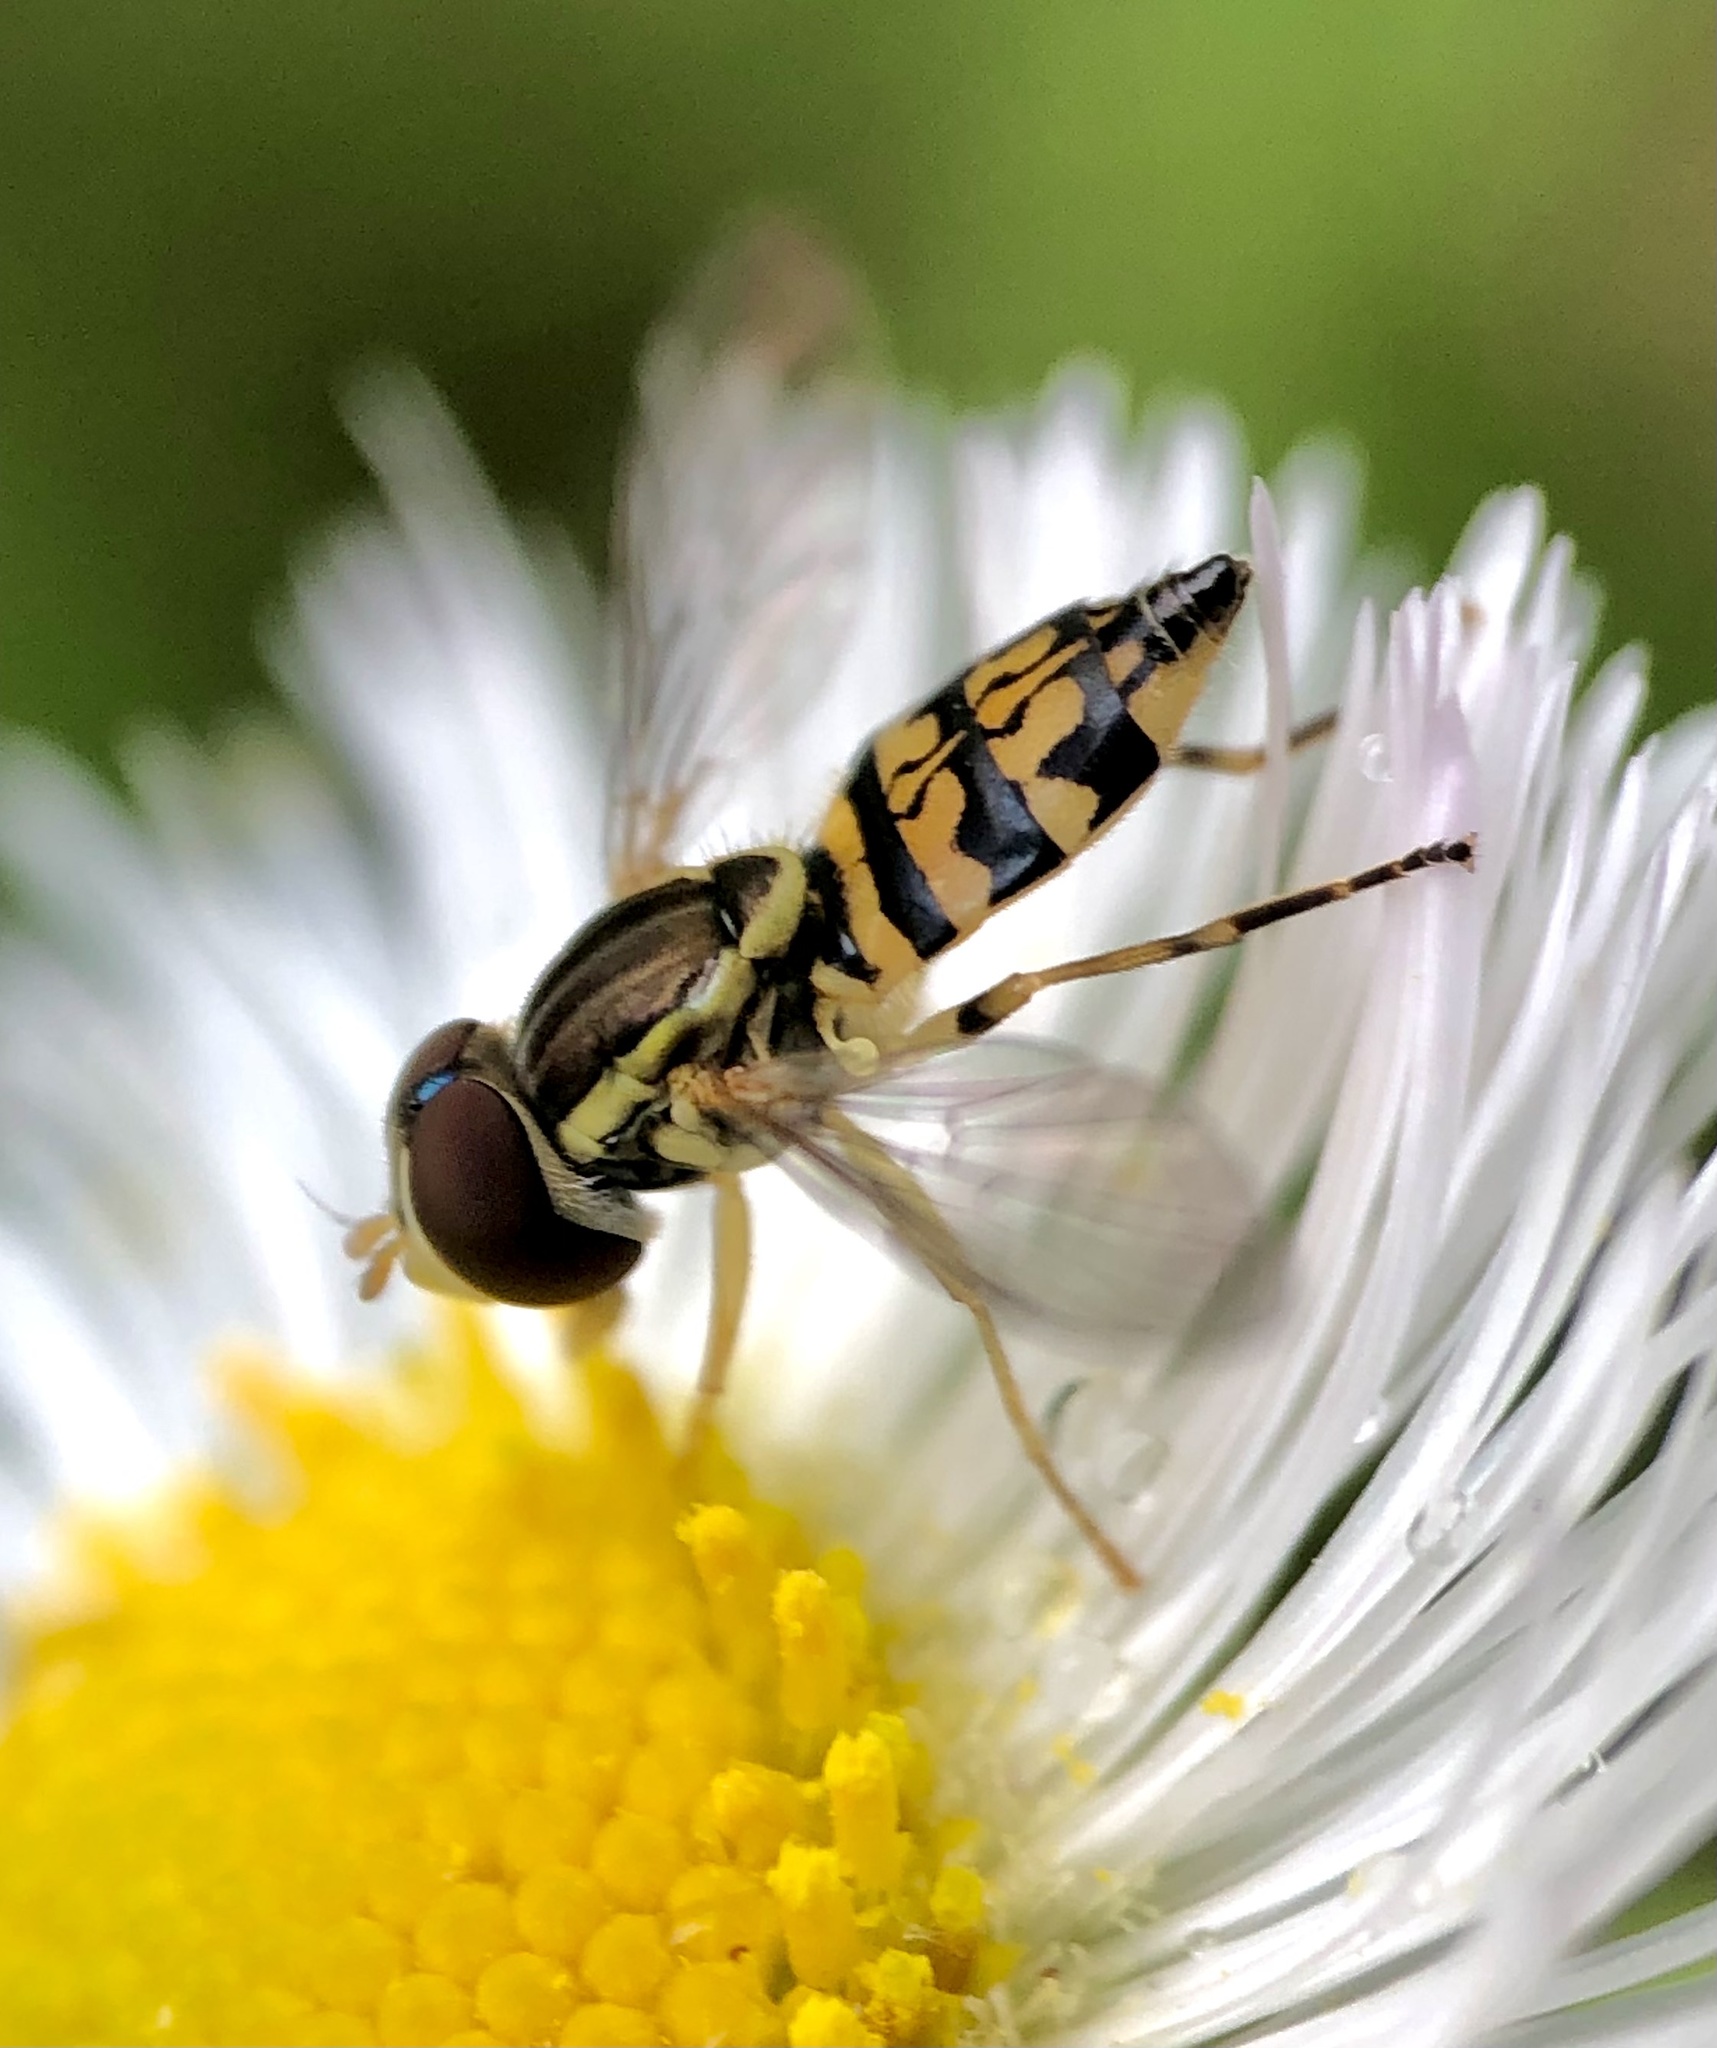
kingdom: Animalia
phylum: Arthropoda
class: Insecta
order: Diptera
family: Syrphidae
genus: Toxomerus
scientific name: Toxomerus geminatus
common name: Eastern calligrapher
